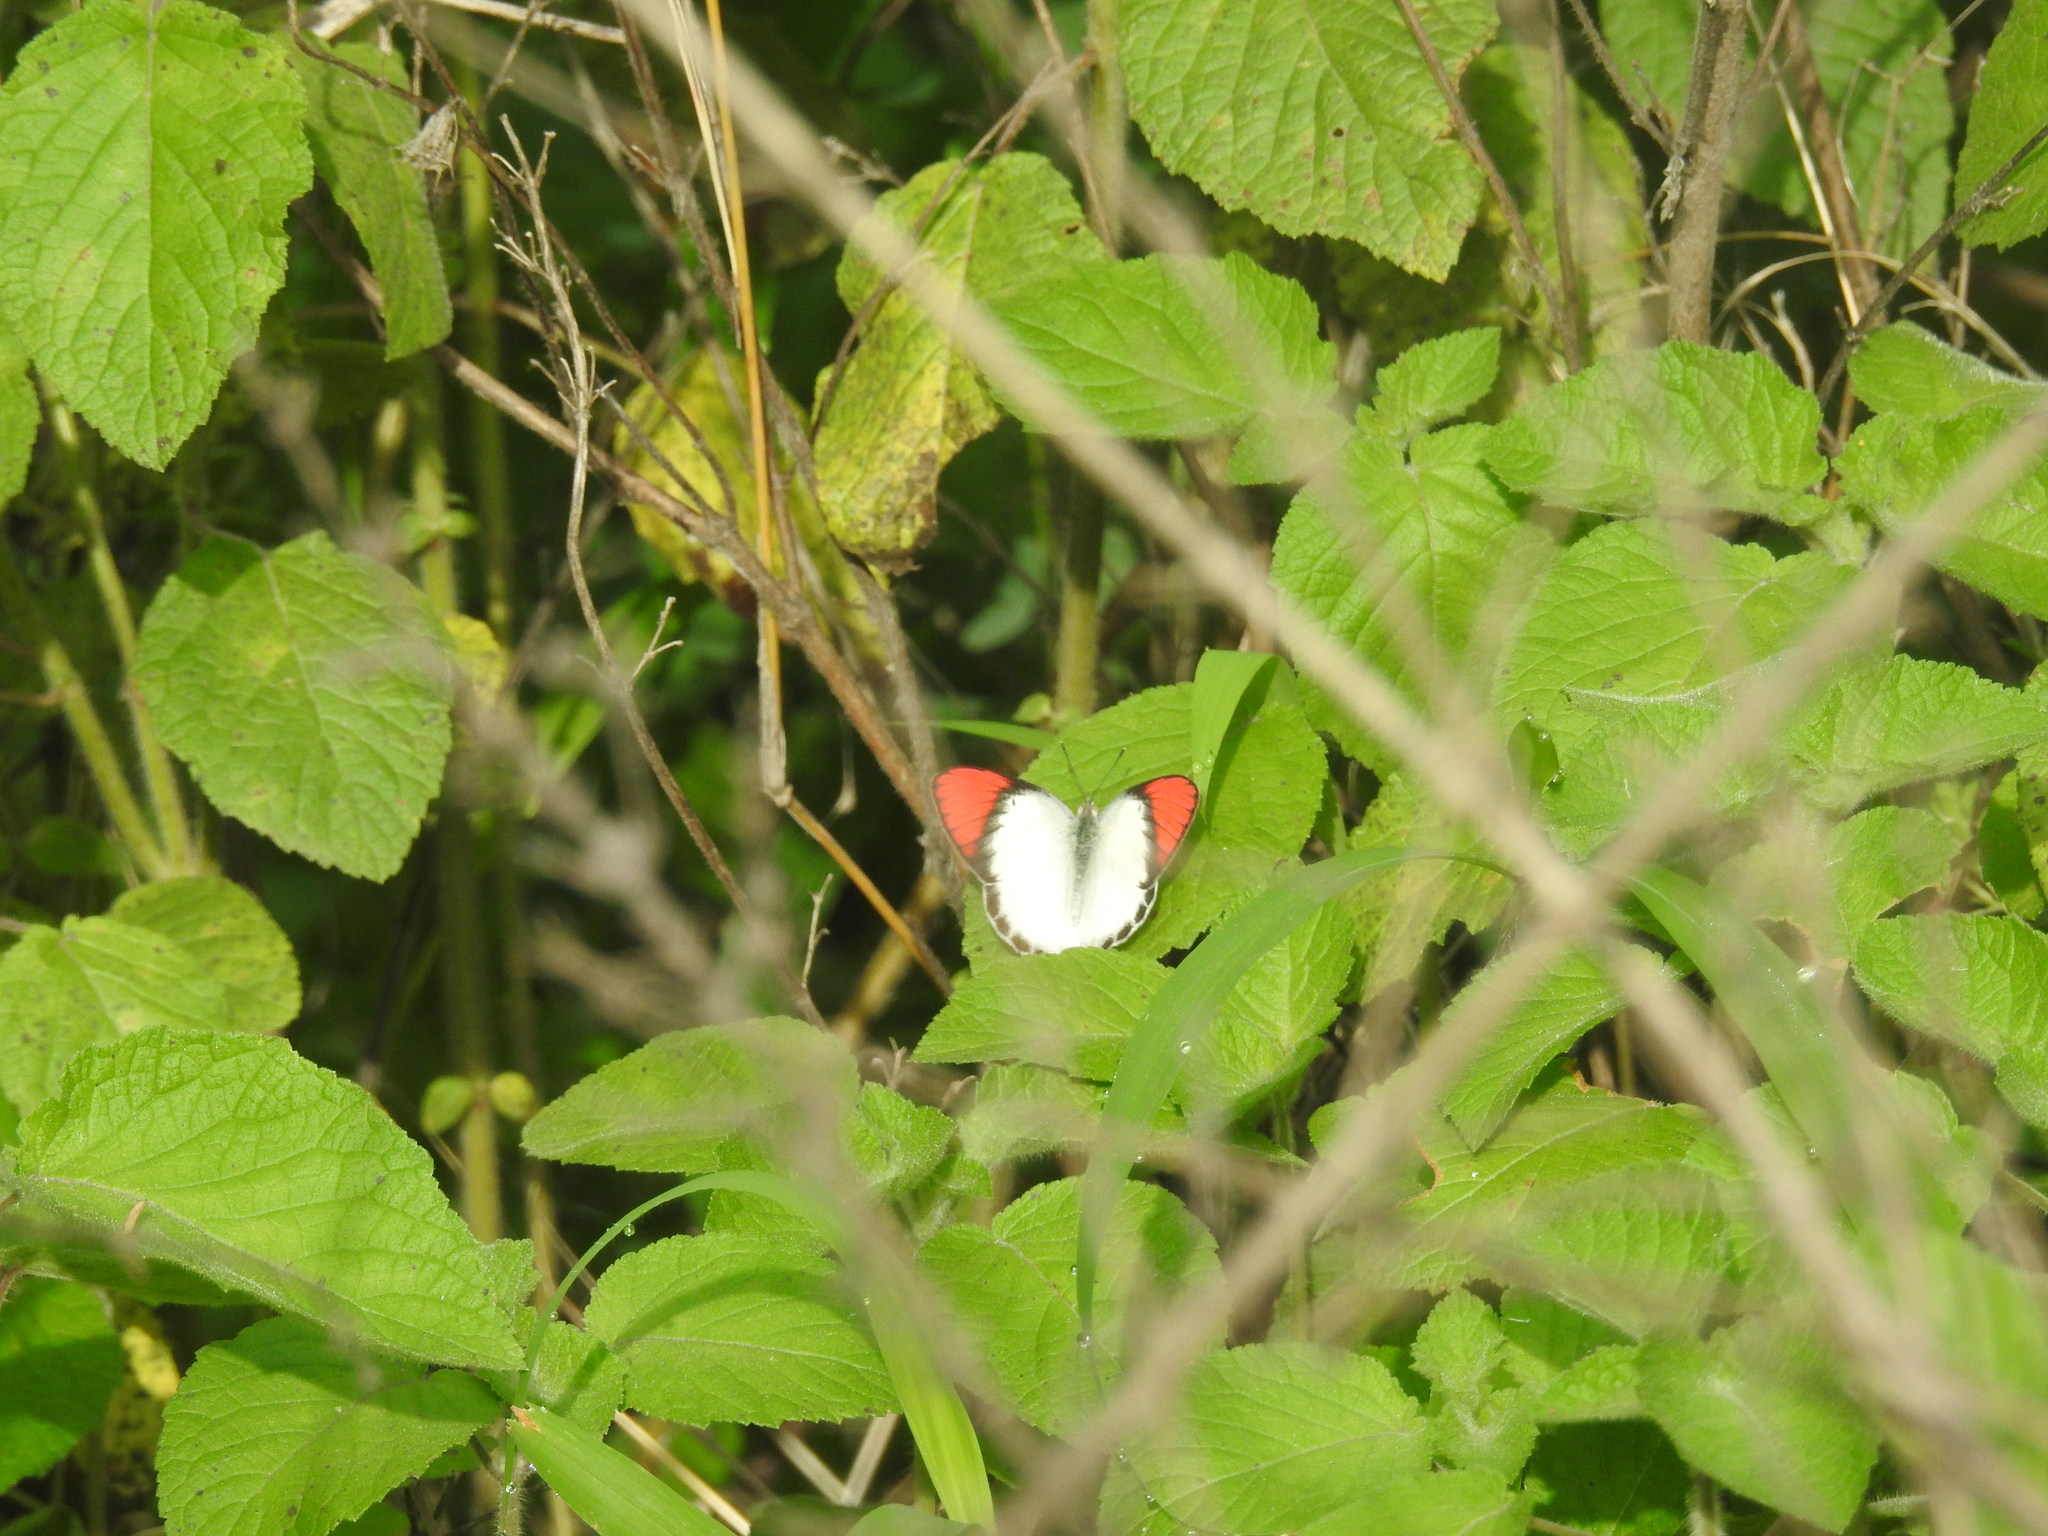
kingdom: Animalia
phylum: Arthropoda
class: Insecta
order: Lepidoptera
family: Pieridae
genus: Colotis
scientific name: Colotis danae
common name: Crimson tip
